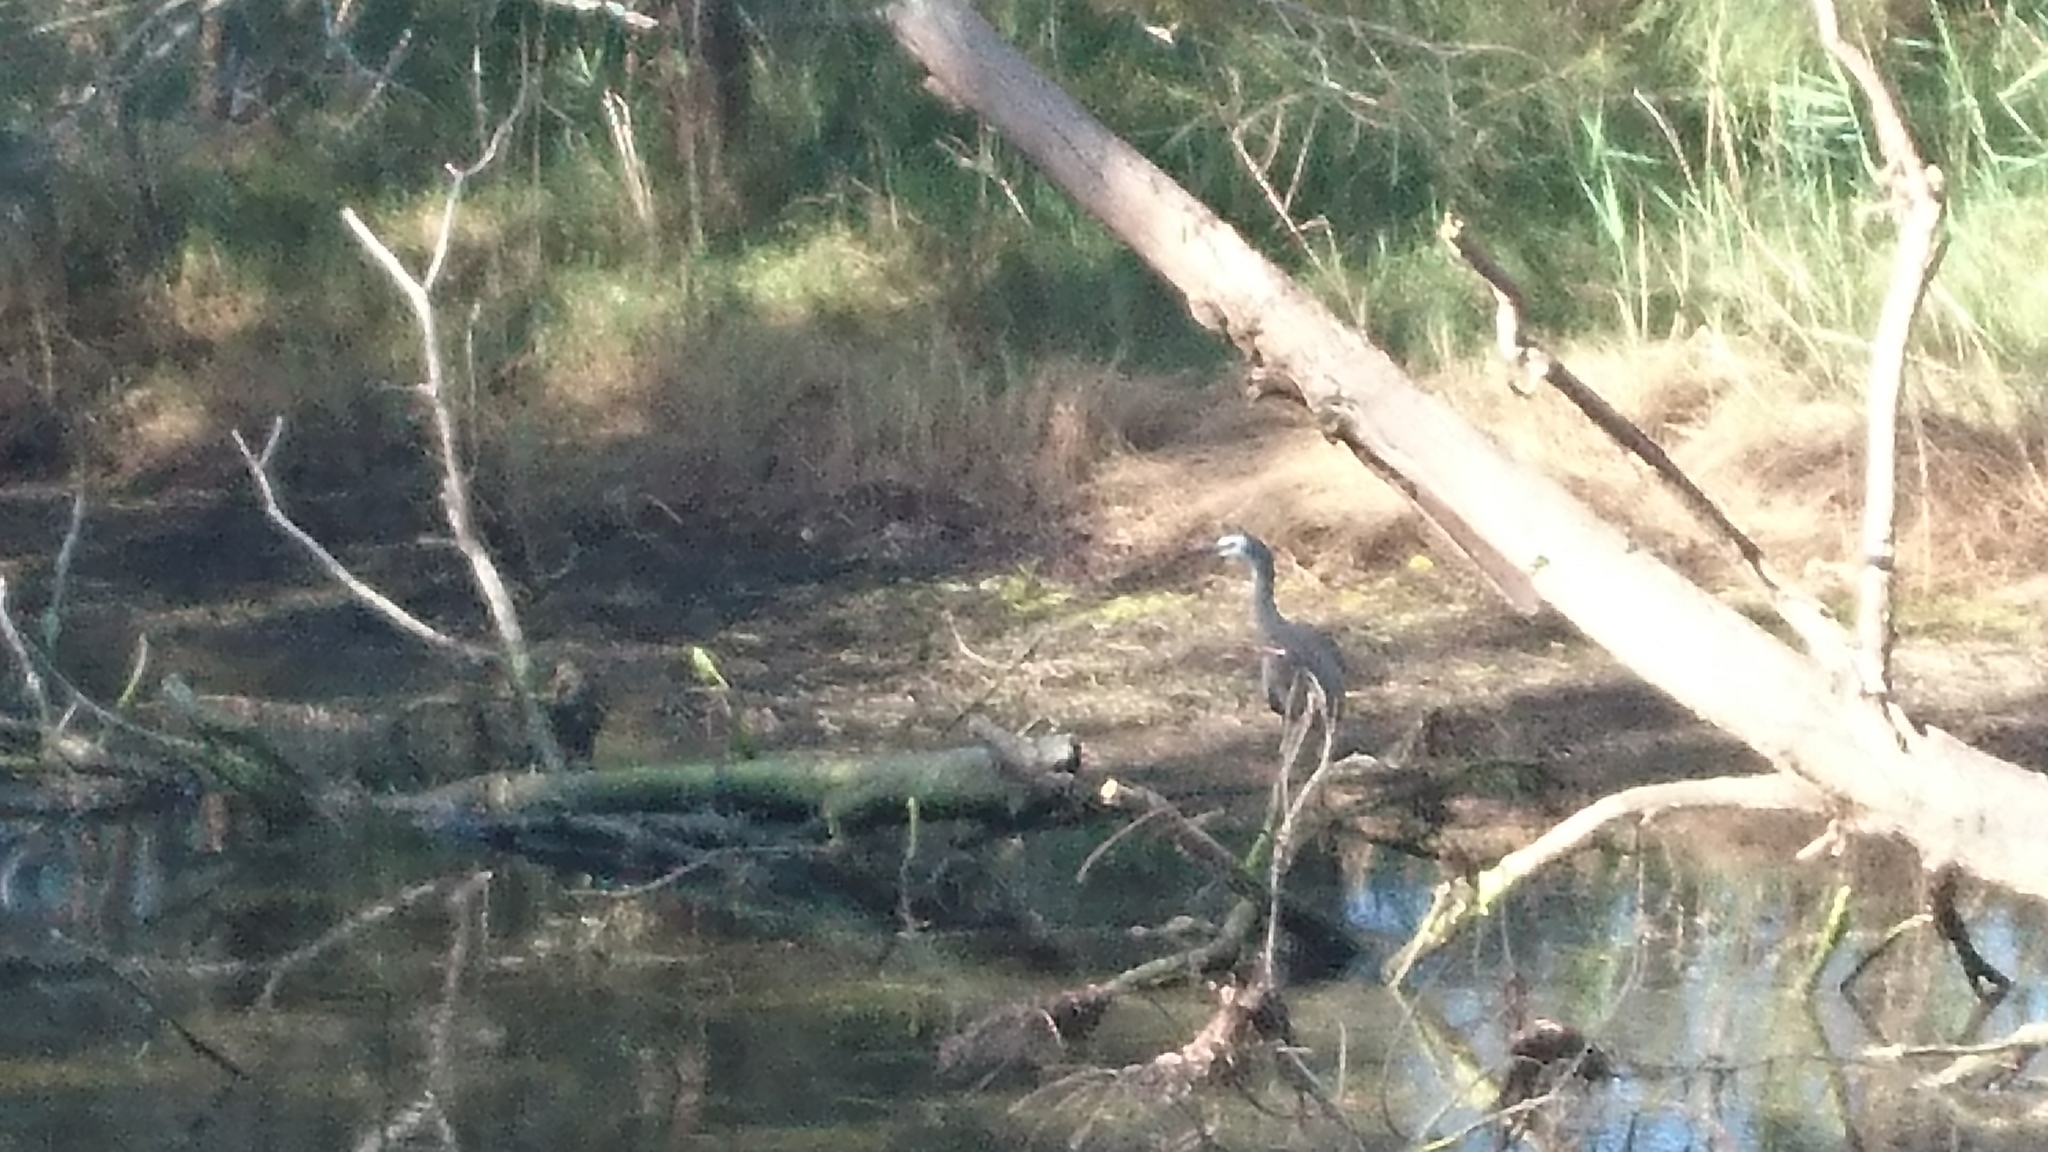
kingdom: Animalia
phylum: Chordata
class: Aves
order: Pelecaniformes
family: Ardeidae
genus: Egretta
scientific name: Egretta novaehollandiae
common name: White-faced heron
